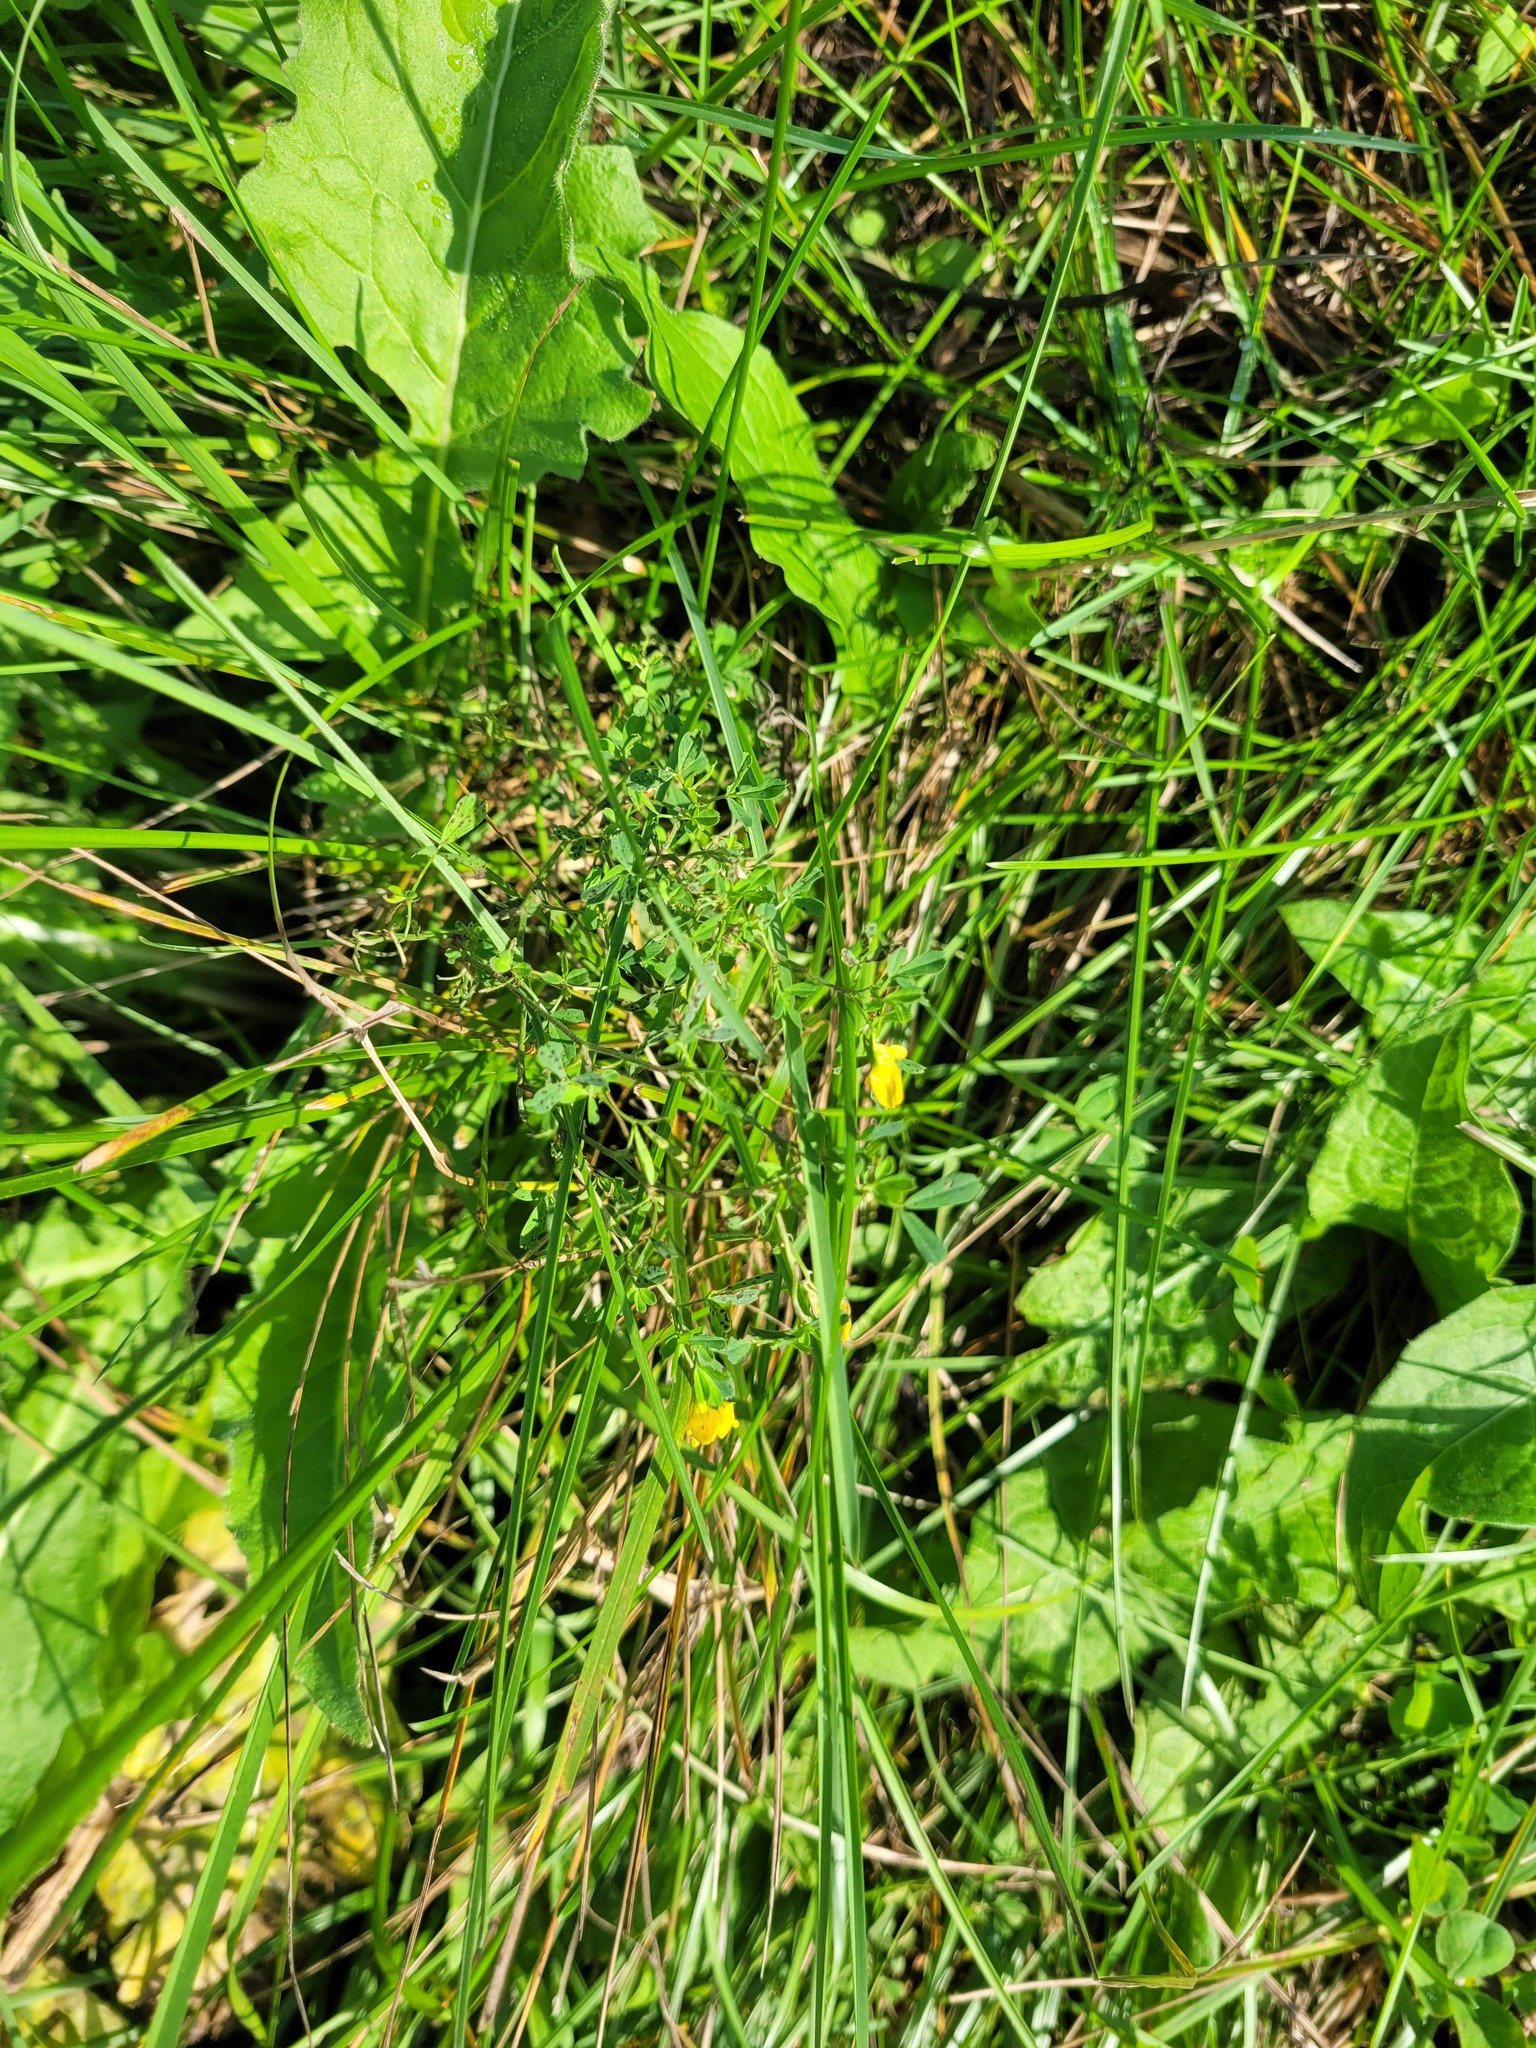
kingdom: Plantae
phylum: Tracheophyta
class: Magnoliopsida
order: Fabales
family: Fabaceae
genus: Medicago
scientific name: Medicago falcata
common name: Sickle medick
